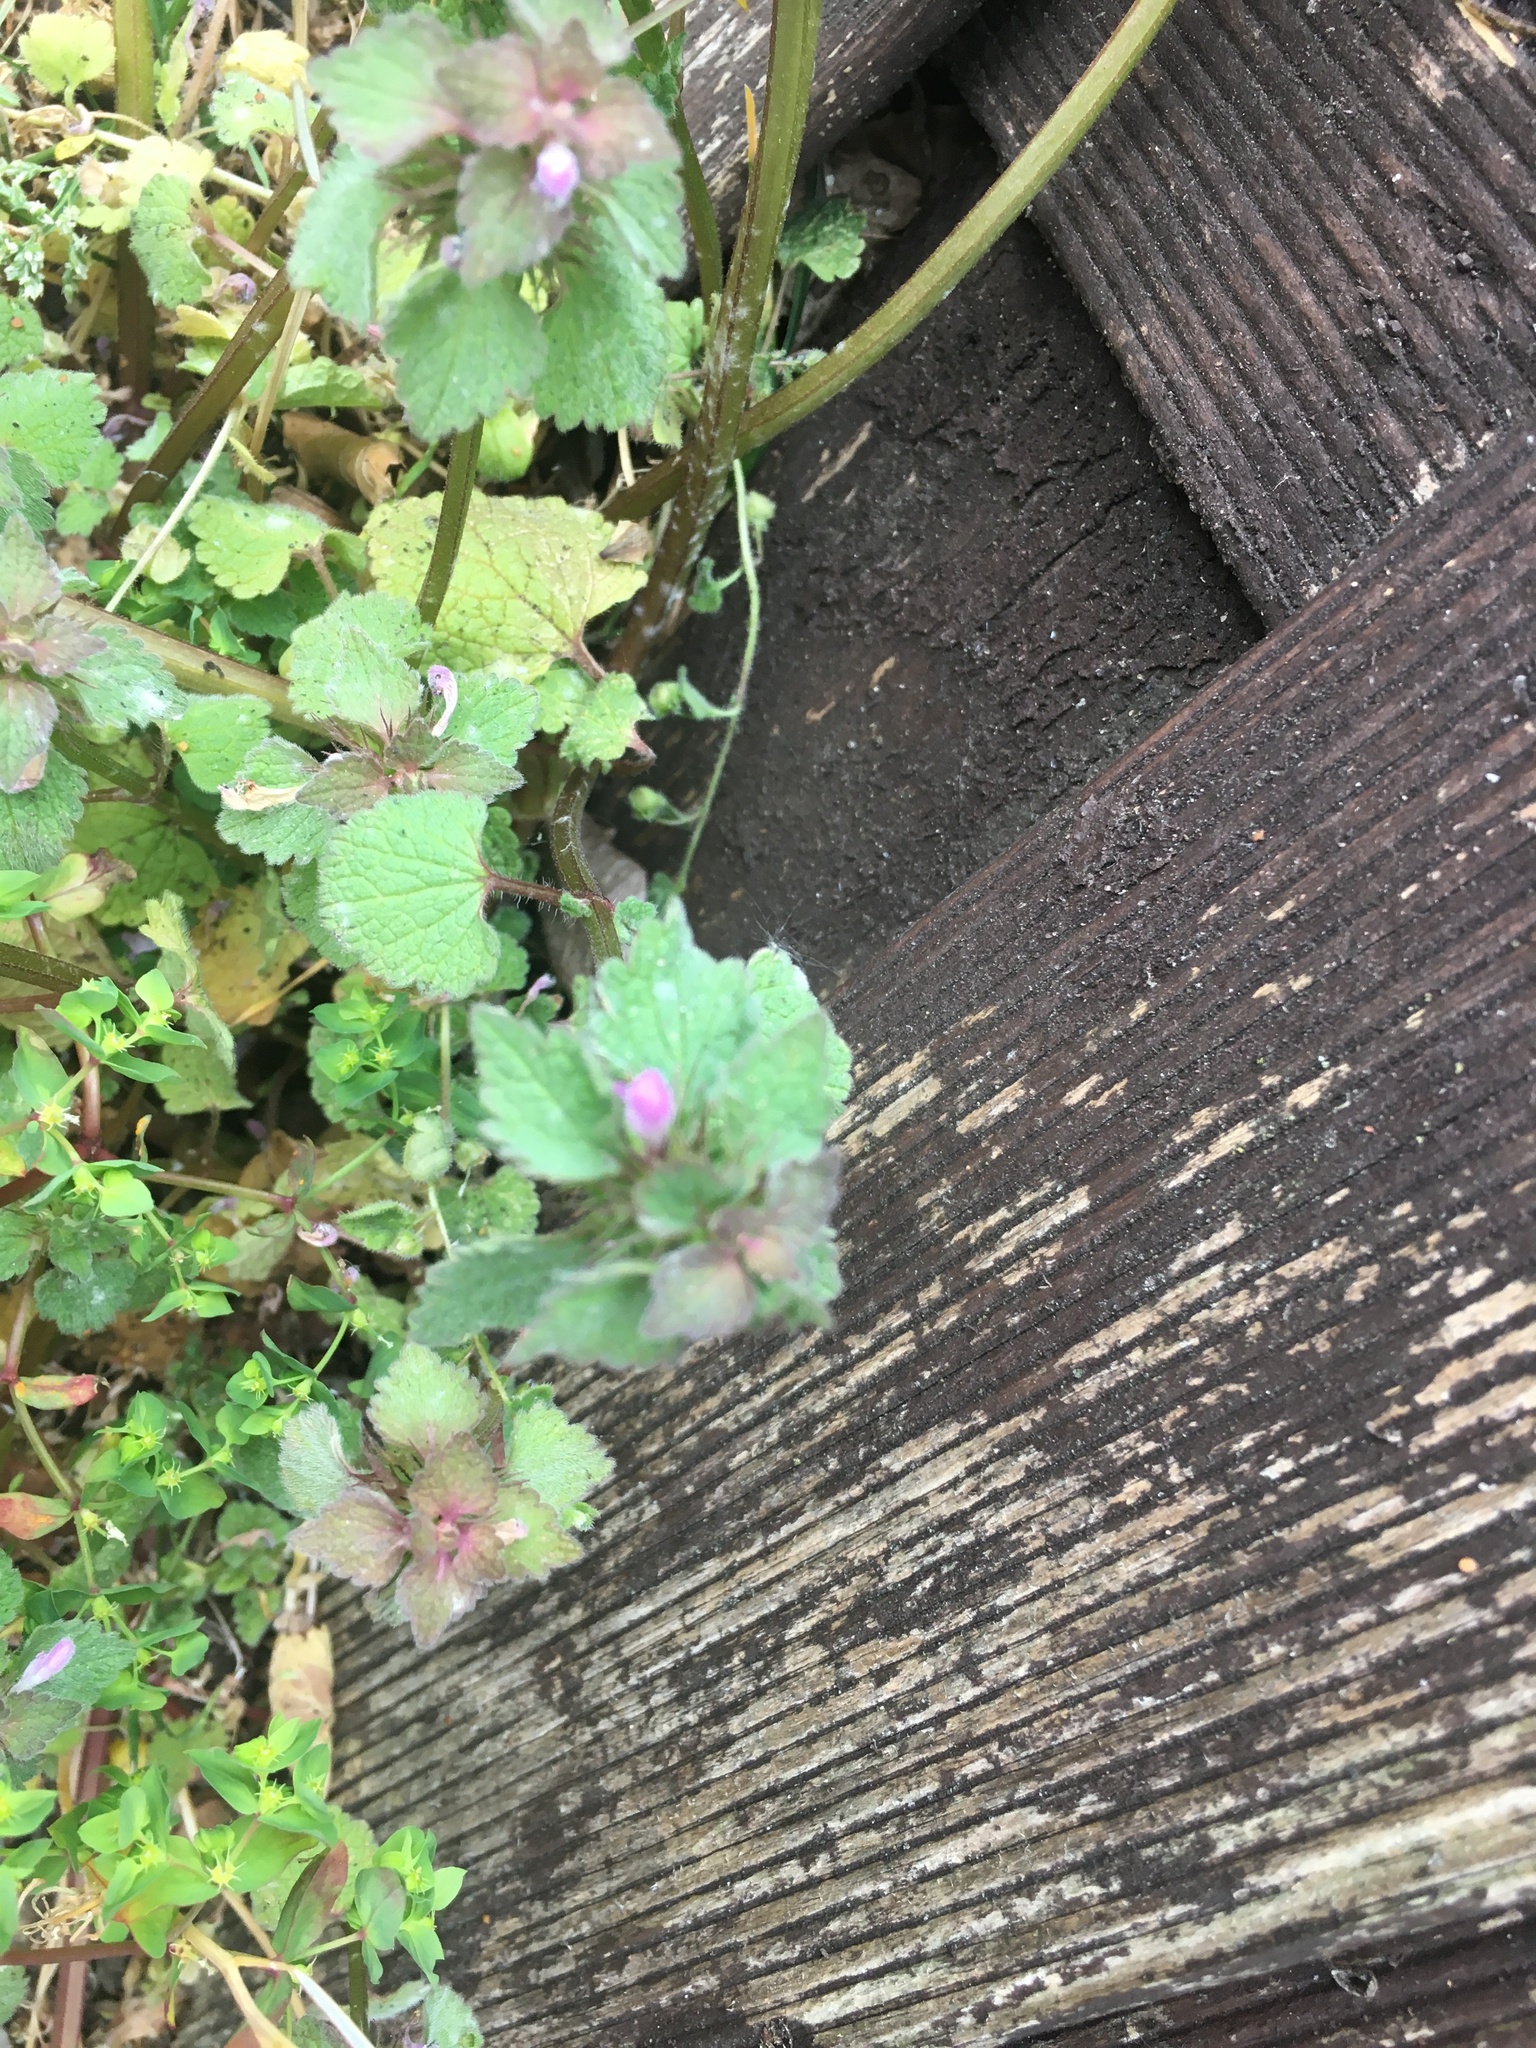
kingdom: Plantae
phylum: Tracheophyta
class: Magnoliopsida
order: Lamiales
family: Lamiaceae
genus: Lamium
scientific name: Lamium purpureum
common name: Red dead-nettle
